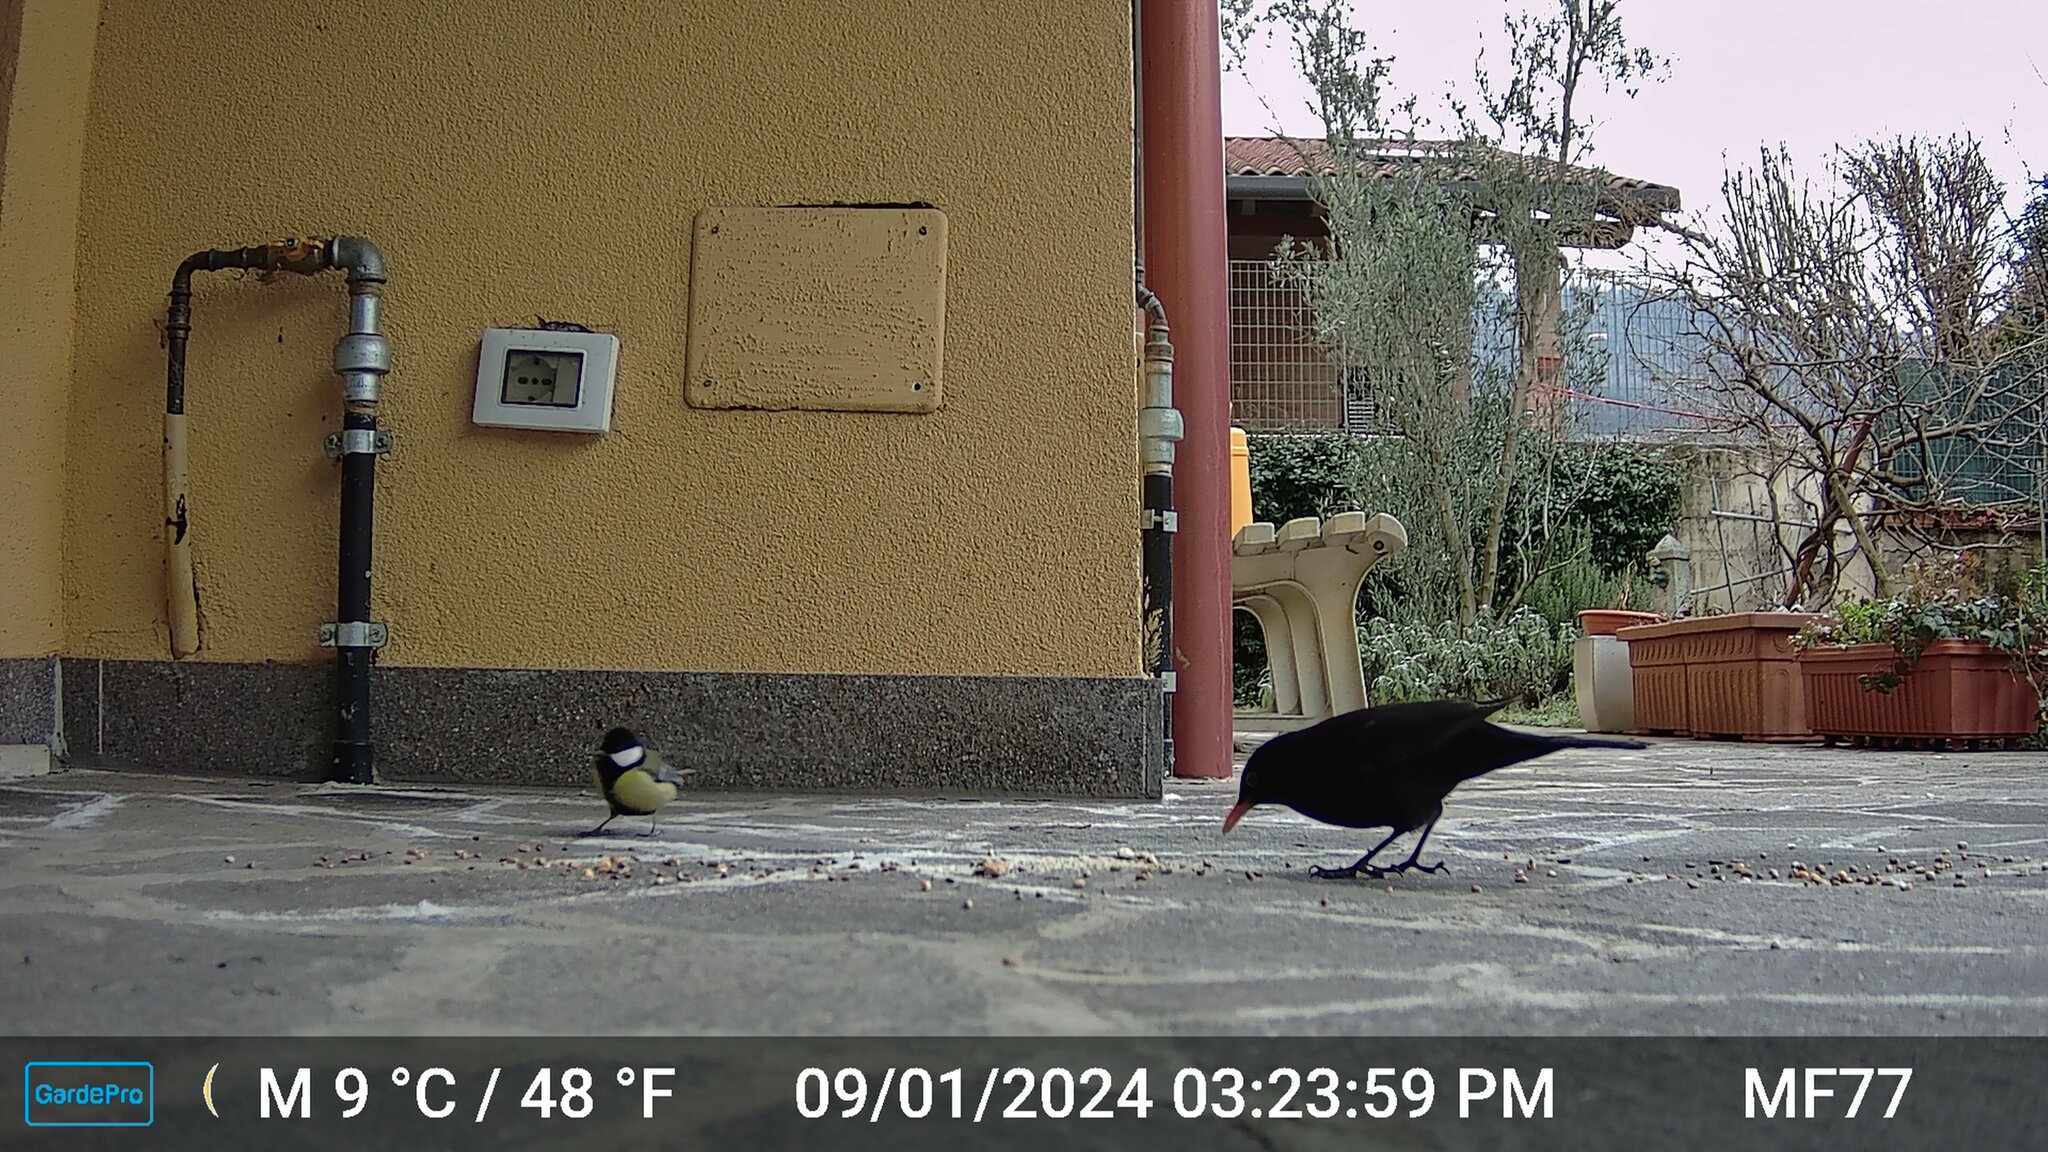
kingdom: Animalia
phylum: Chordata
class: Aves
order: Passeriformes
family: Paridae
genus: Parus
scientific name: Parus major
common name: Great tit
